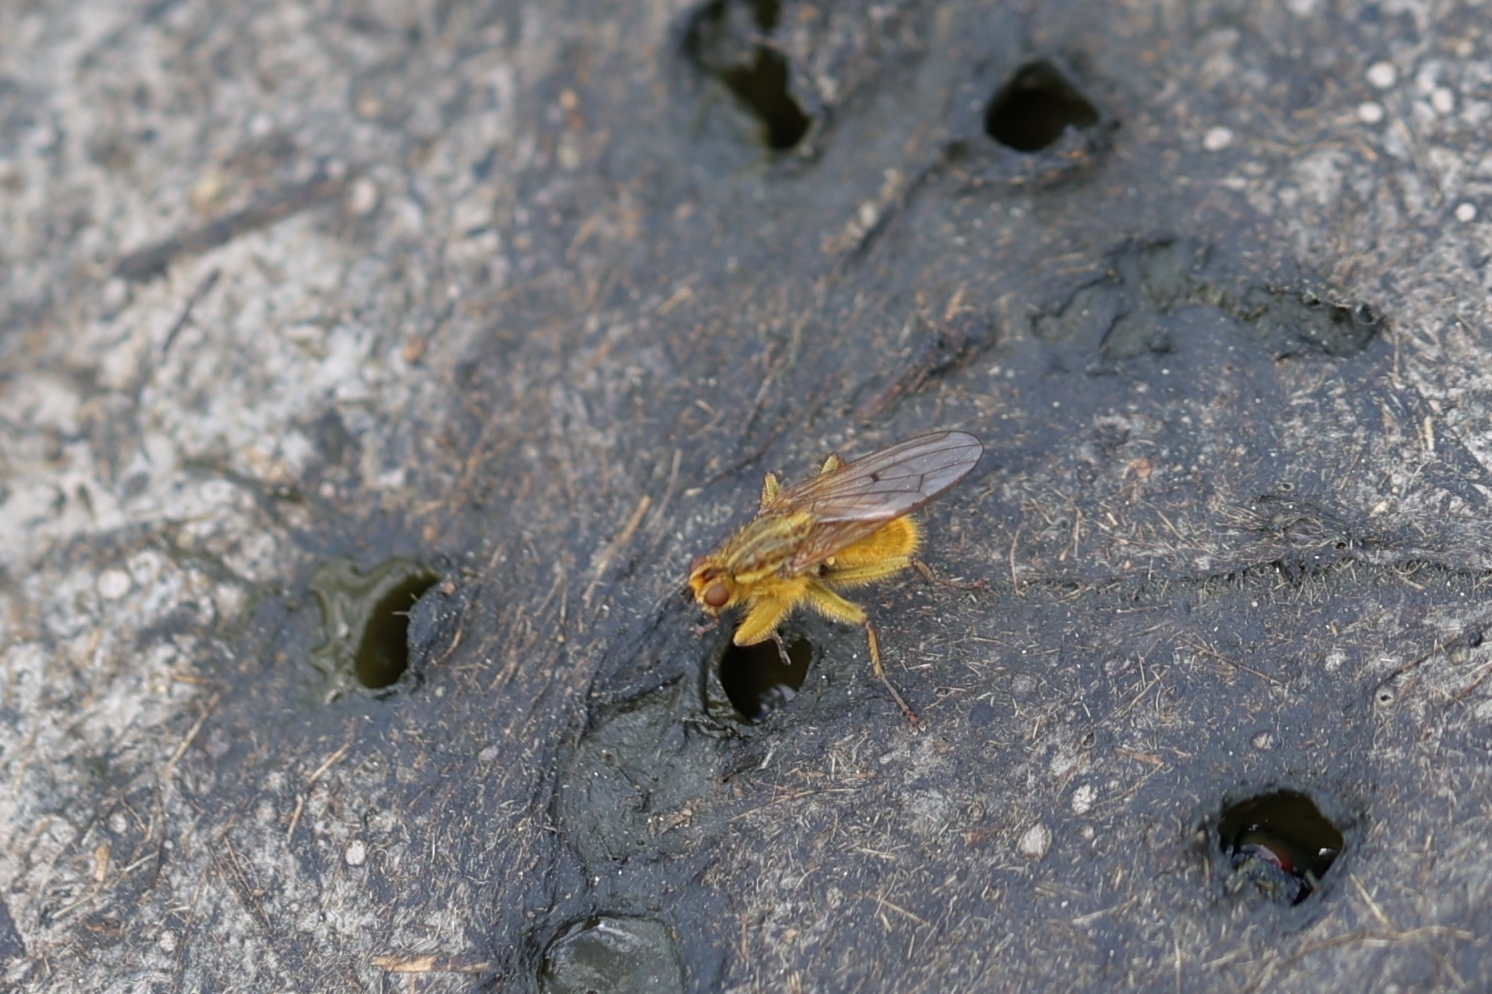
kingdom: Animalia
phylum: Arthropoda
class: Insecta
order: Diptera
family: Scathophagidae
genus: Scathophaga
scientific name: Scathophaga stercoraria
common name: Yellow dung fly
